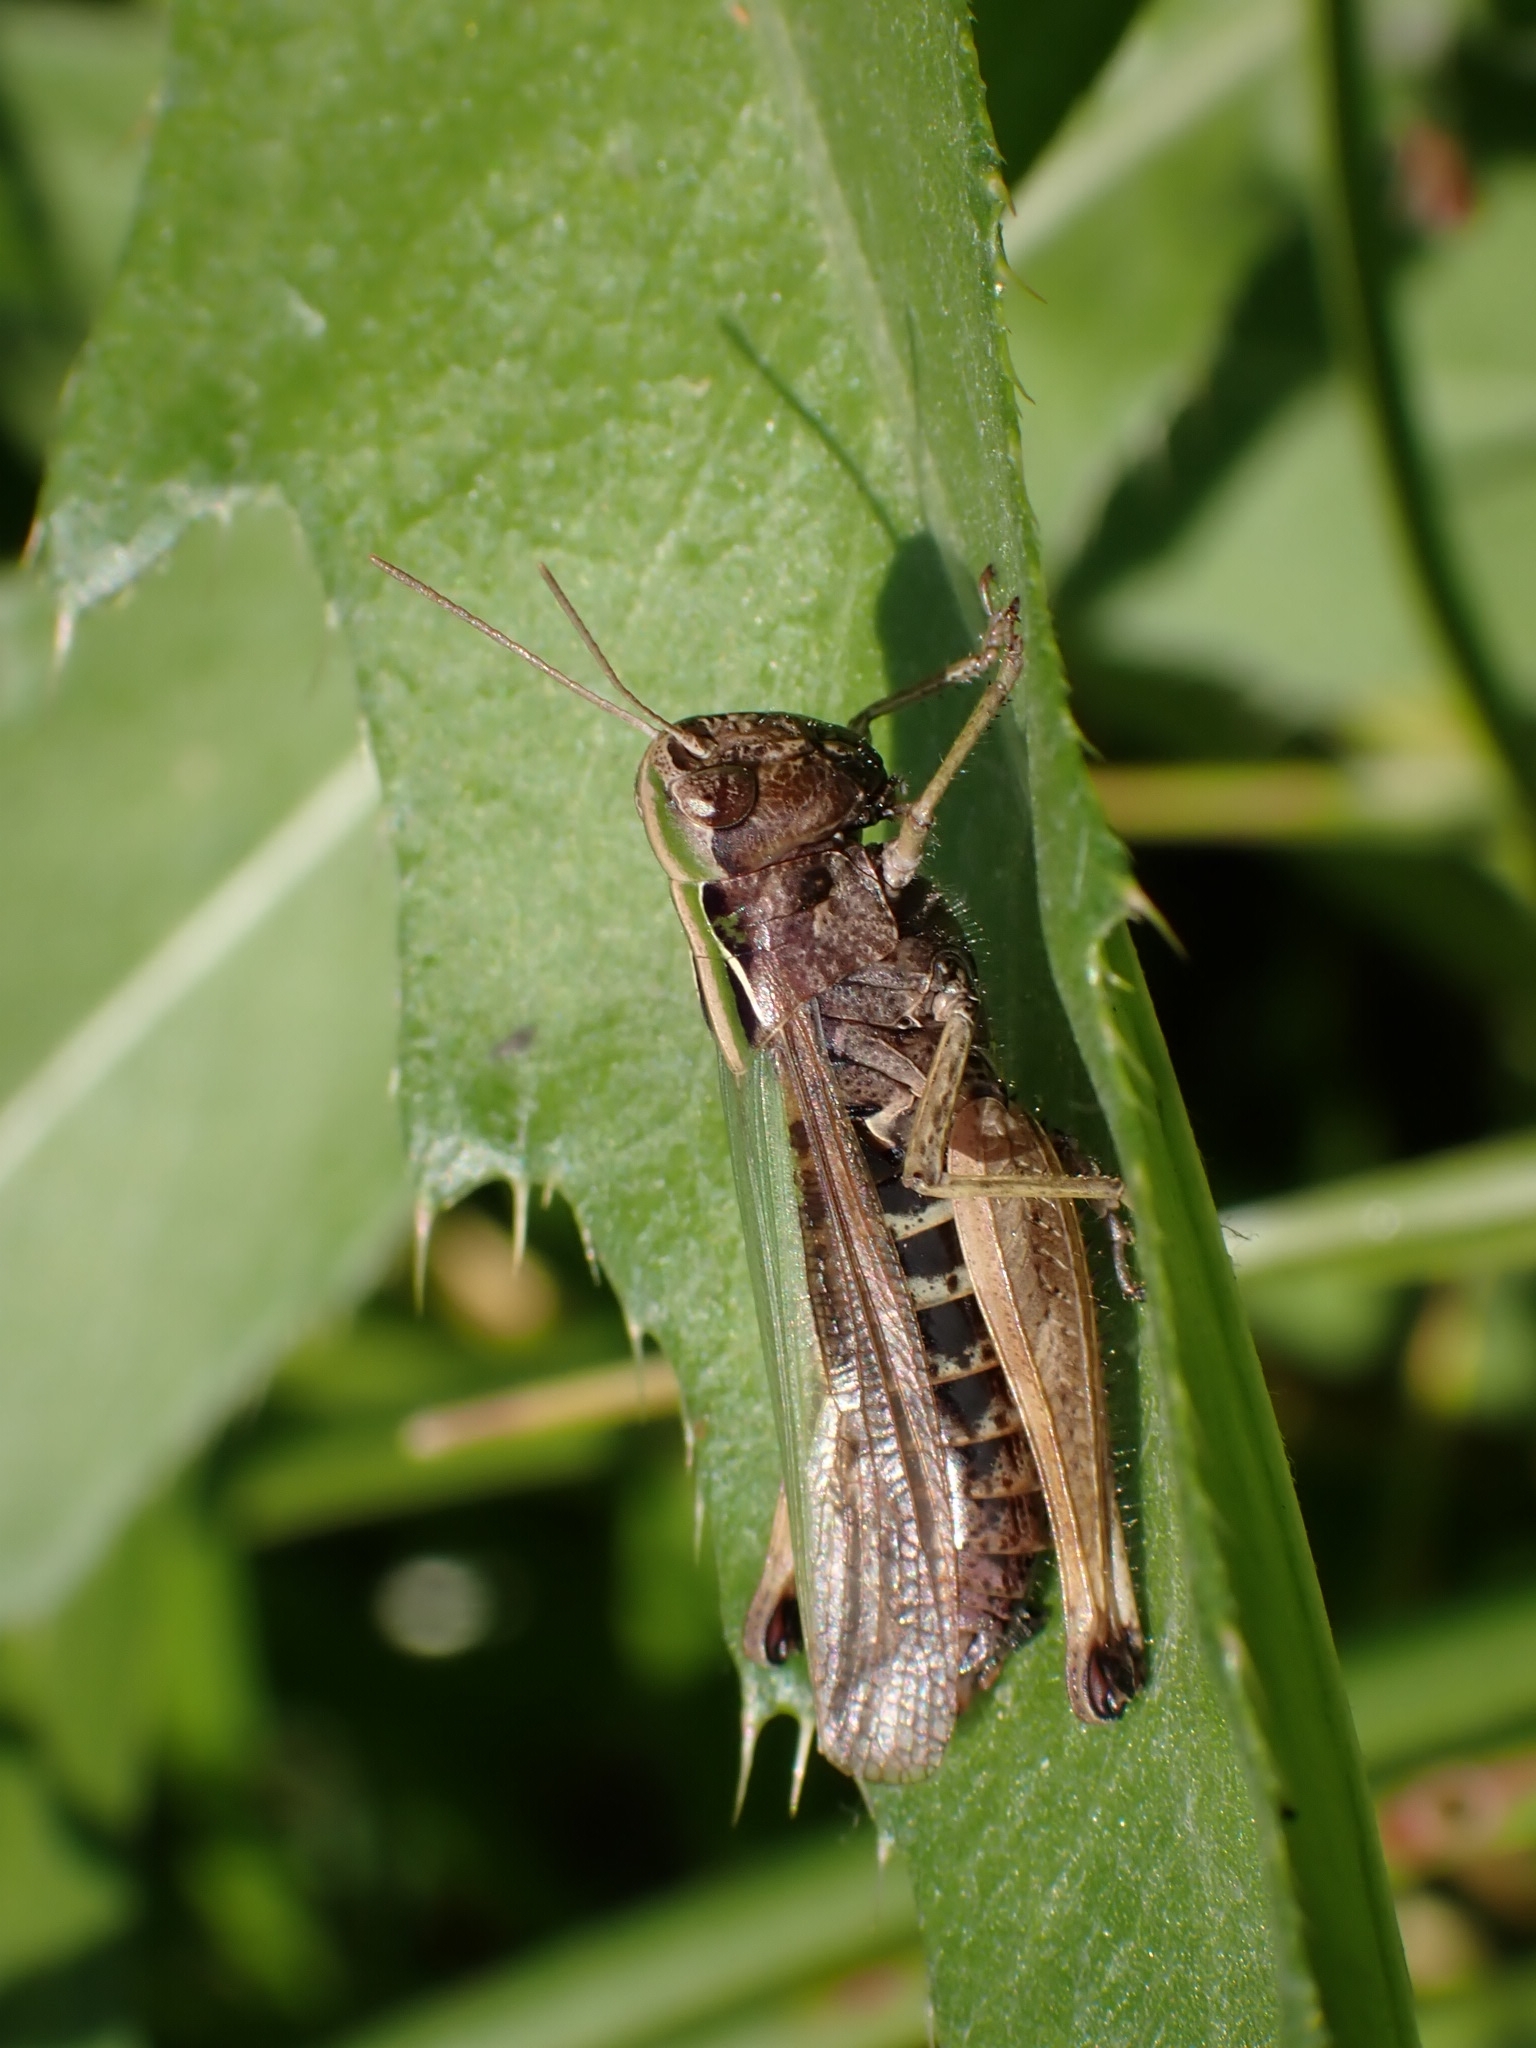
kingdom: Animalia
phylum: Arthropoda
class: Insecta
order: Orthoptera
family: Acrididae
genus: Omocestus
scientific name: Omocestus viridulus
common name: Common green grasshopper
